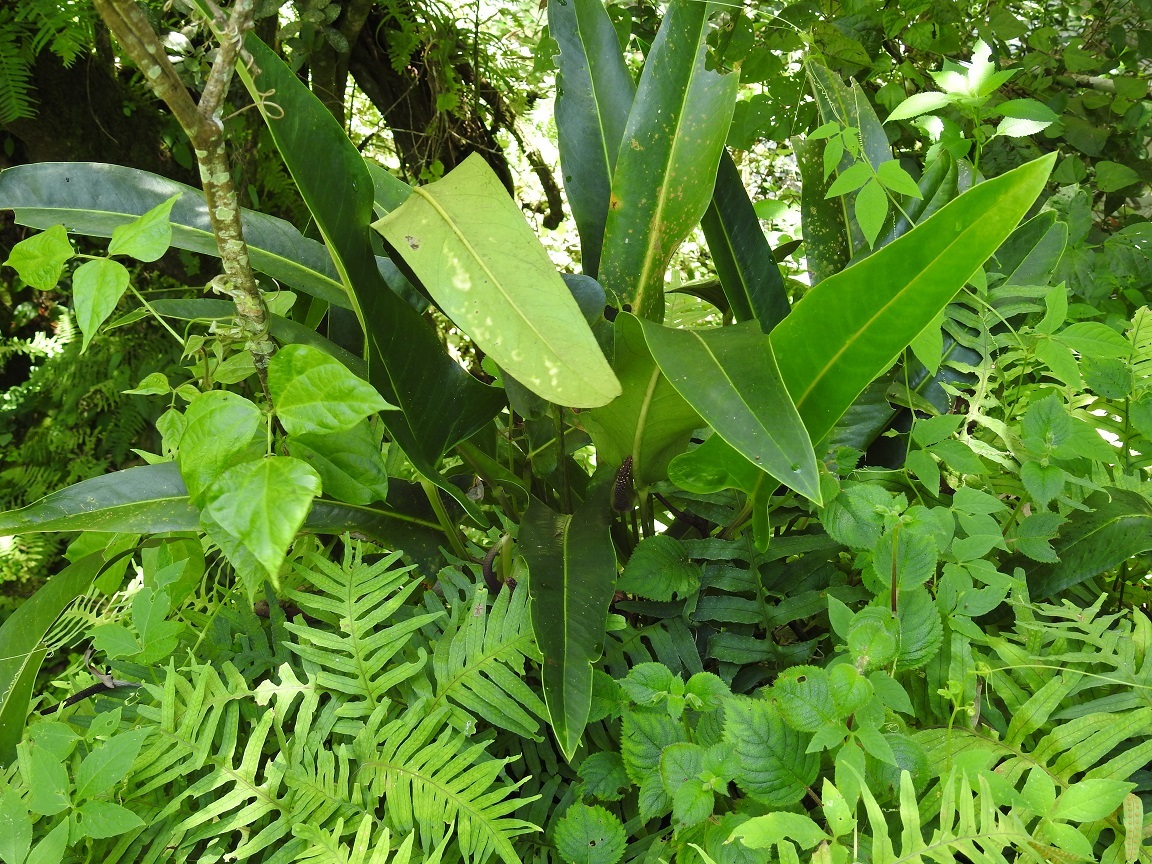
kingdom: Plantae
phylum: Tracheophyta
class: Liliopsida
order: Alismatales
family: Araceae
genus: Anthurium
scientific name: Anthurium seleri
